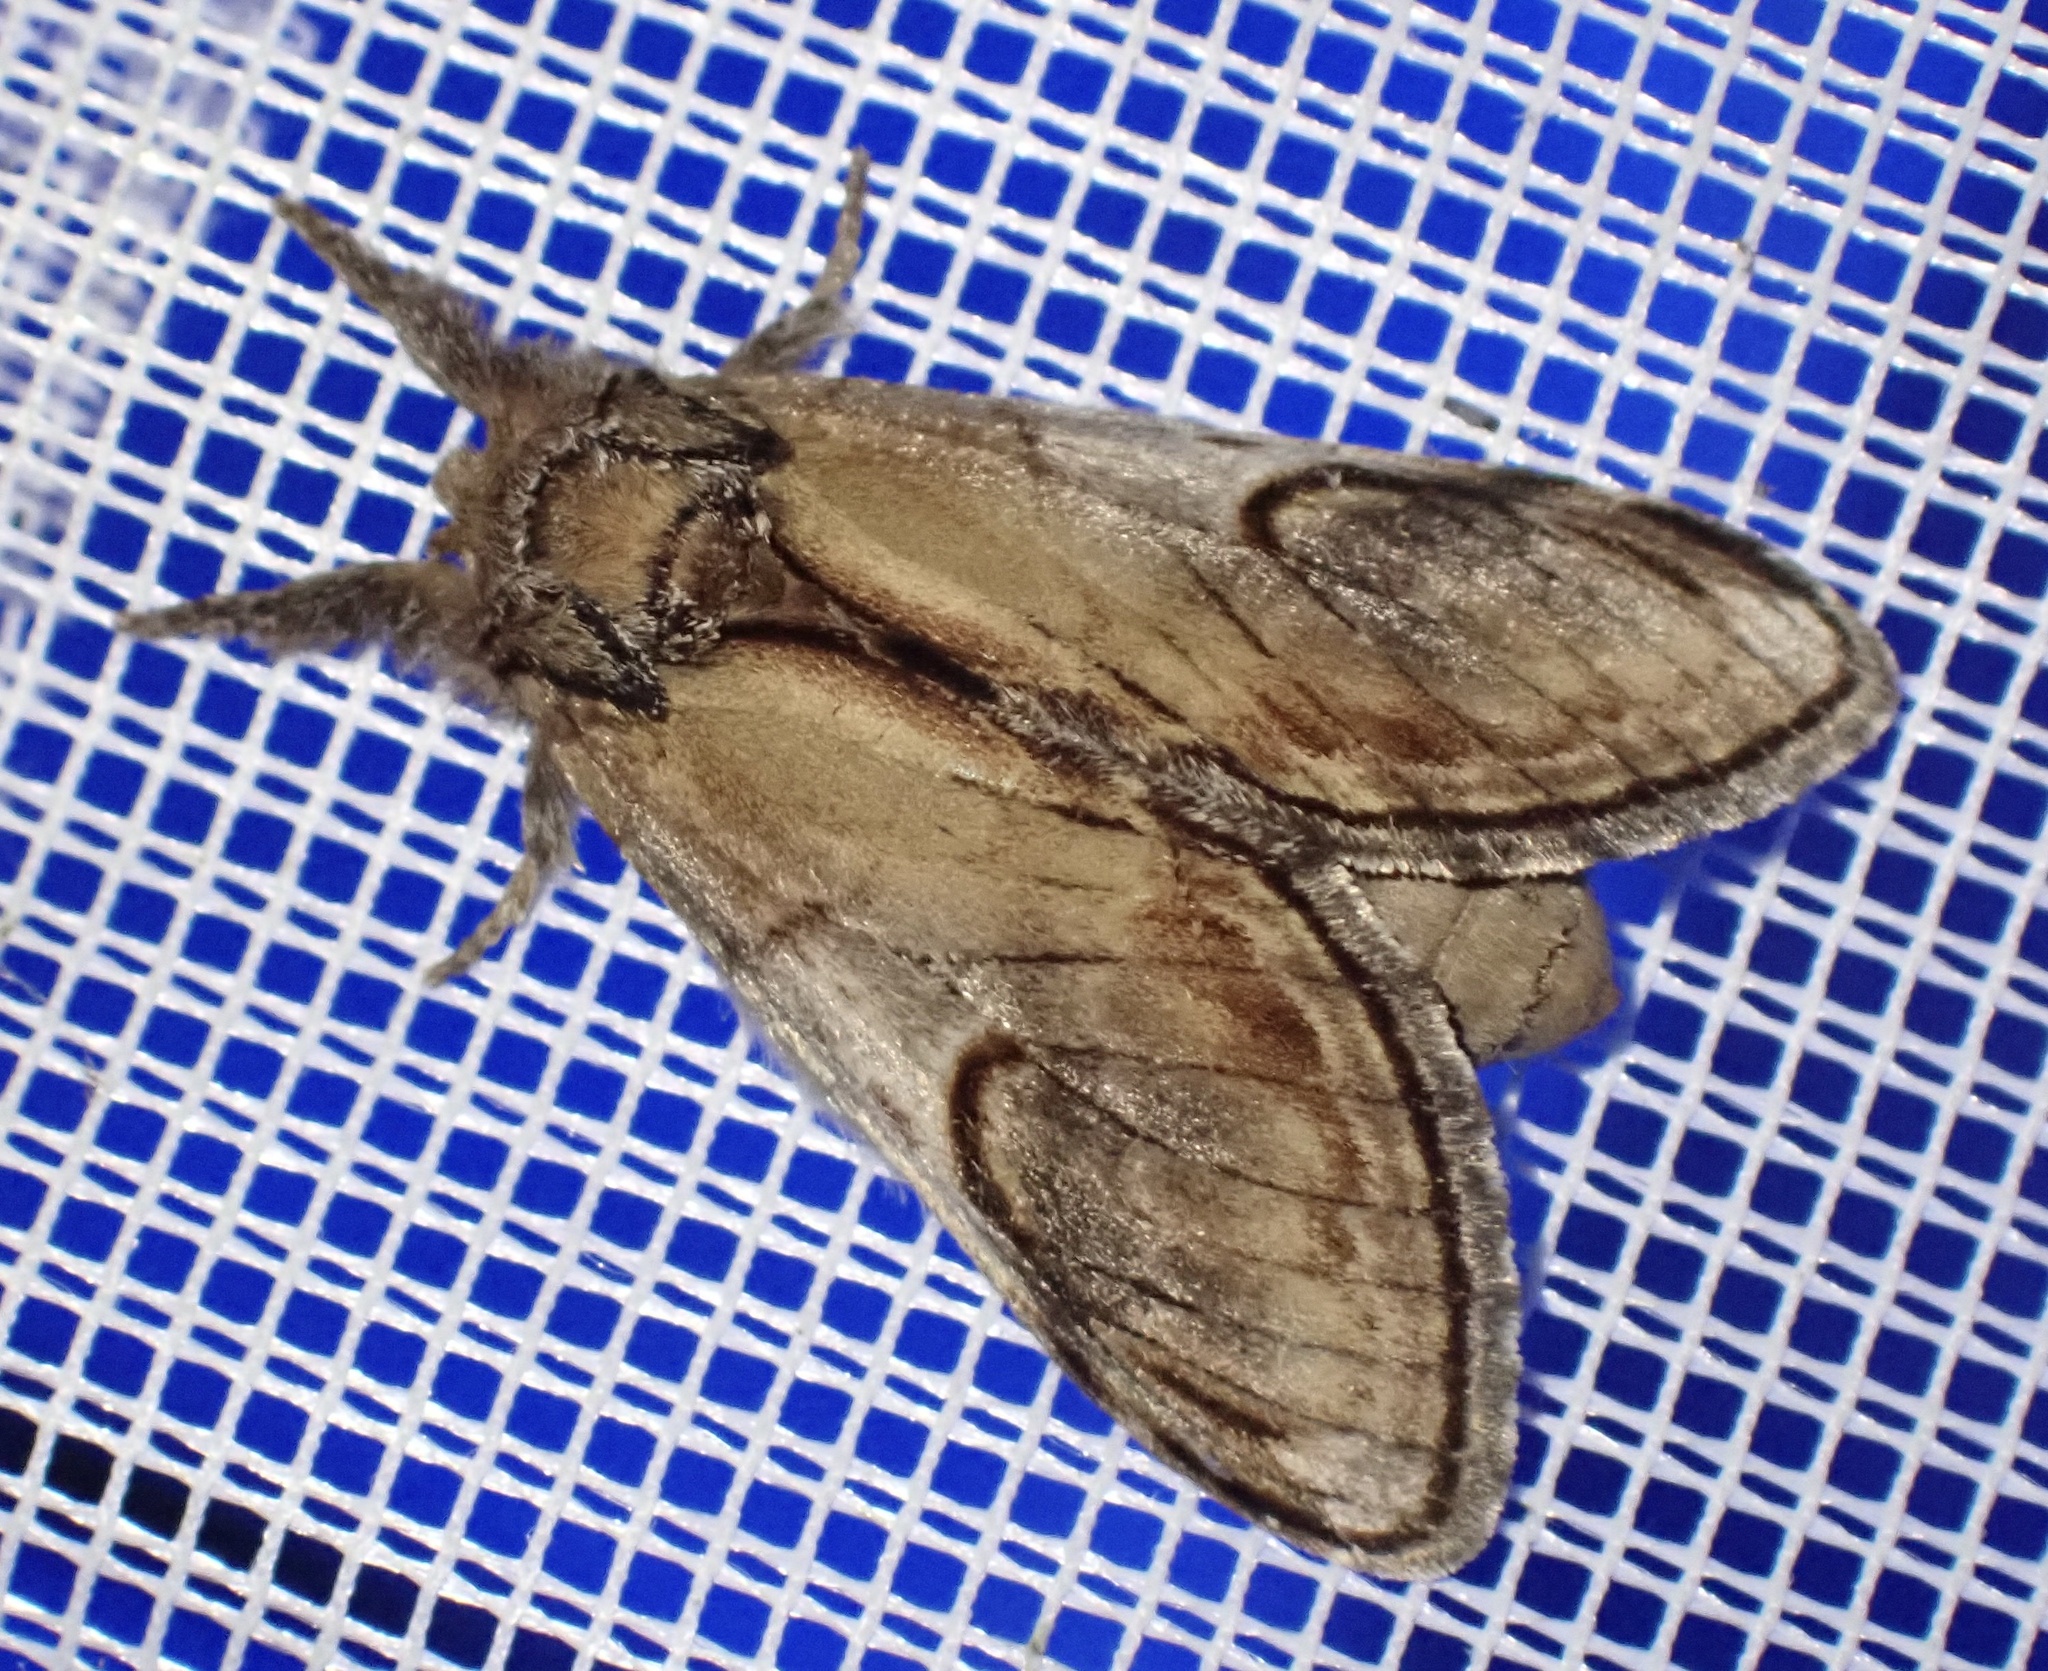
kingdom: Animalia
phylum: Arthropoda
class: Insecta
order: Lepidoptera
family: Notodontidae
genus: Notodonta
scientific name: Notodonta ziczac
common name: Pebble prominent
